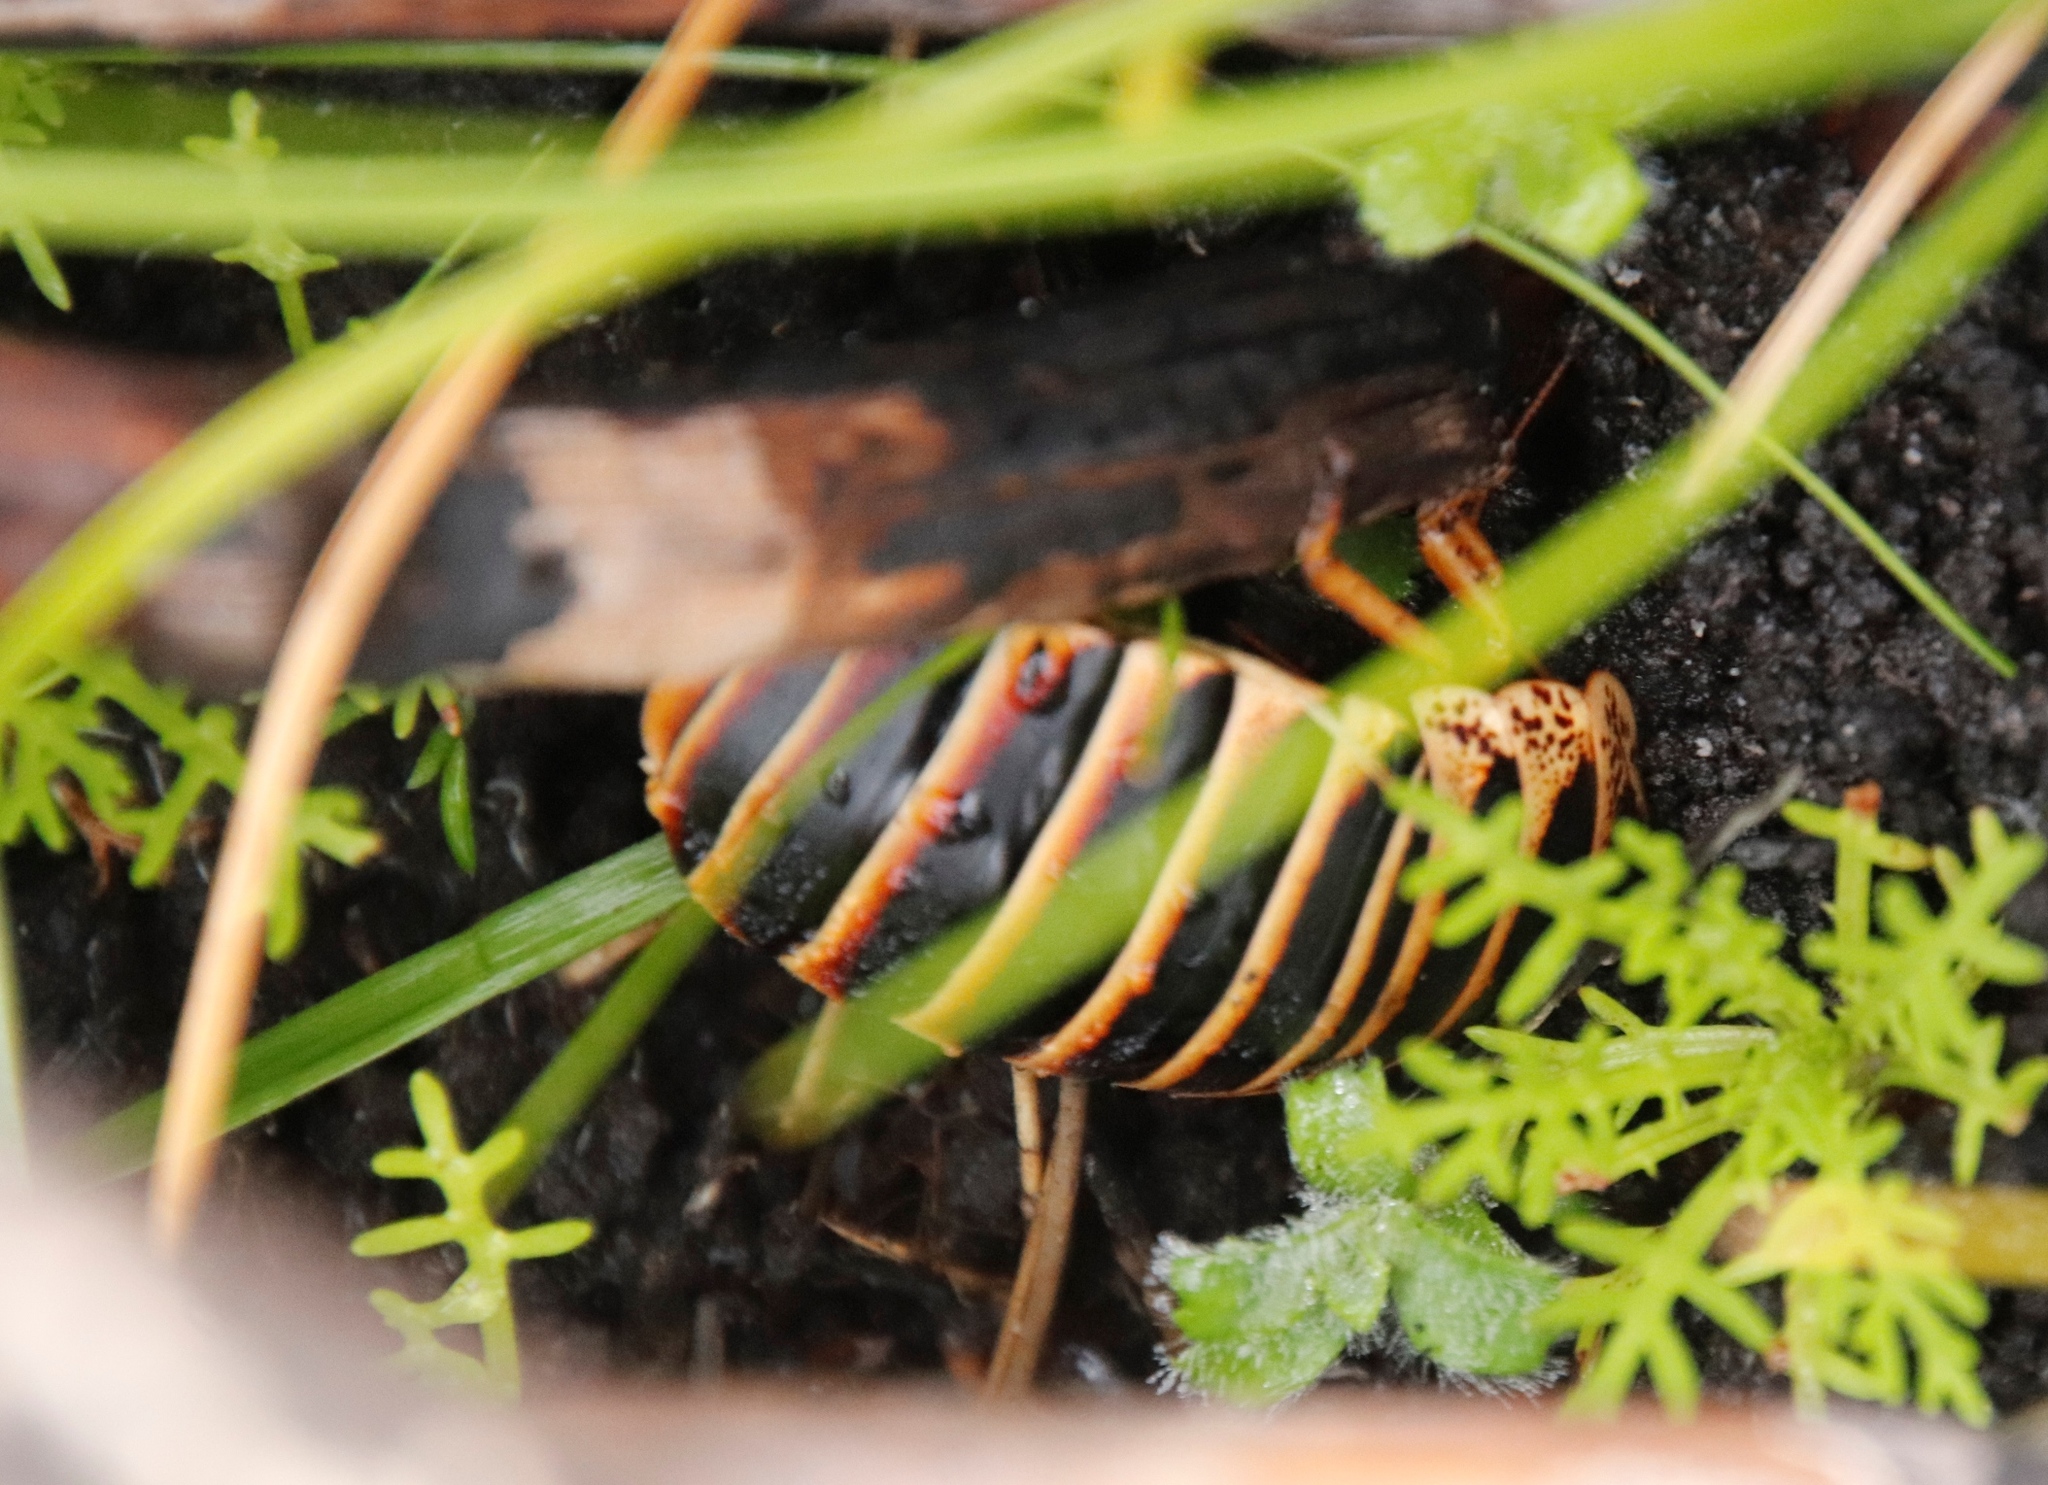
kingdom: Animalia
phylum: Arthropoda
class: Insecta
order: Blattodea
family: Blaberidae
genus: Aptera
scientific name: Aptera fusca
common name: Cape mountain cockroach
